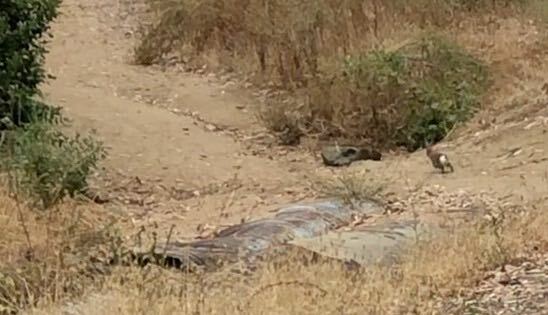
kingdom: Animalia
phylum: Chordata
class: Mammalia
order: Lagomorpha
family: Leporidae
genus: Sylvilagus
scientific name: Sylvilagus audubonii
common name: Desert cottontail
